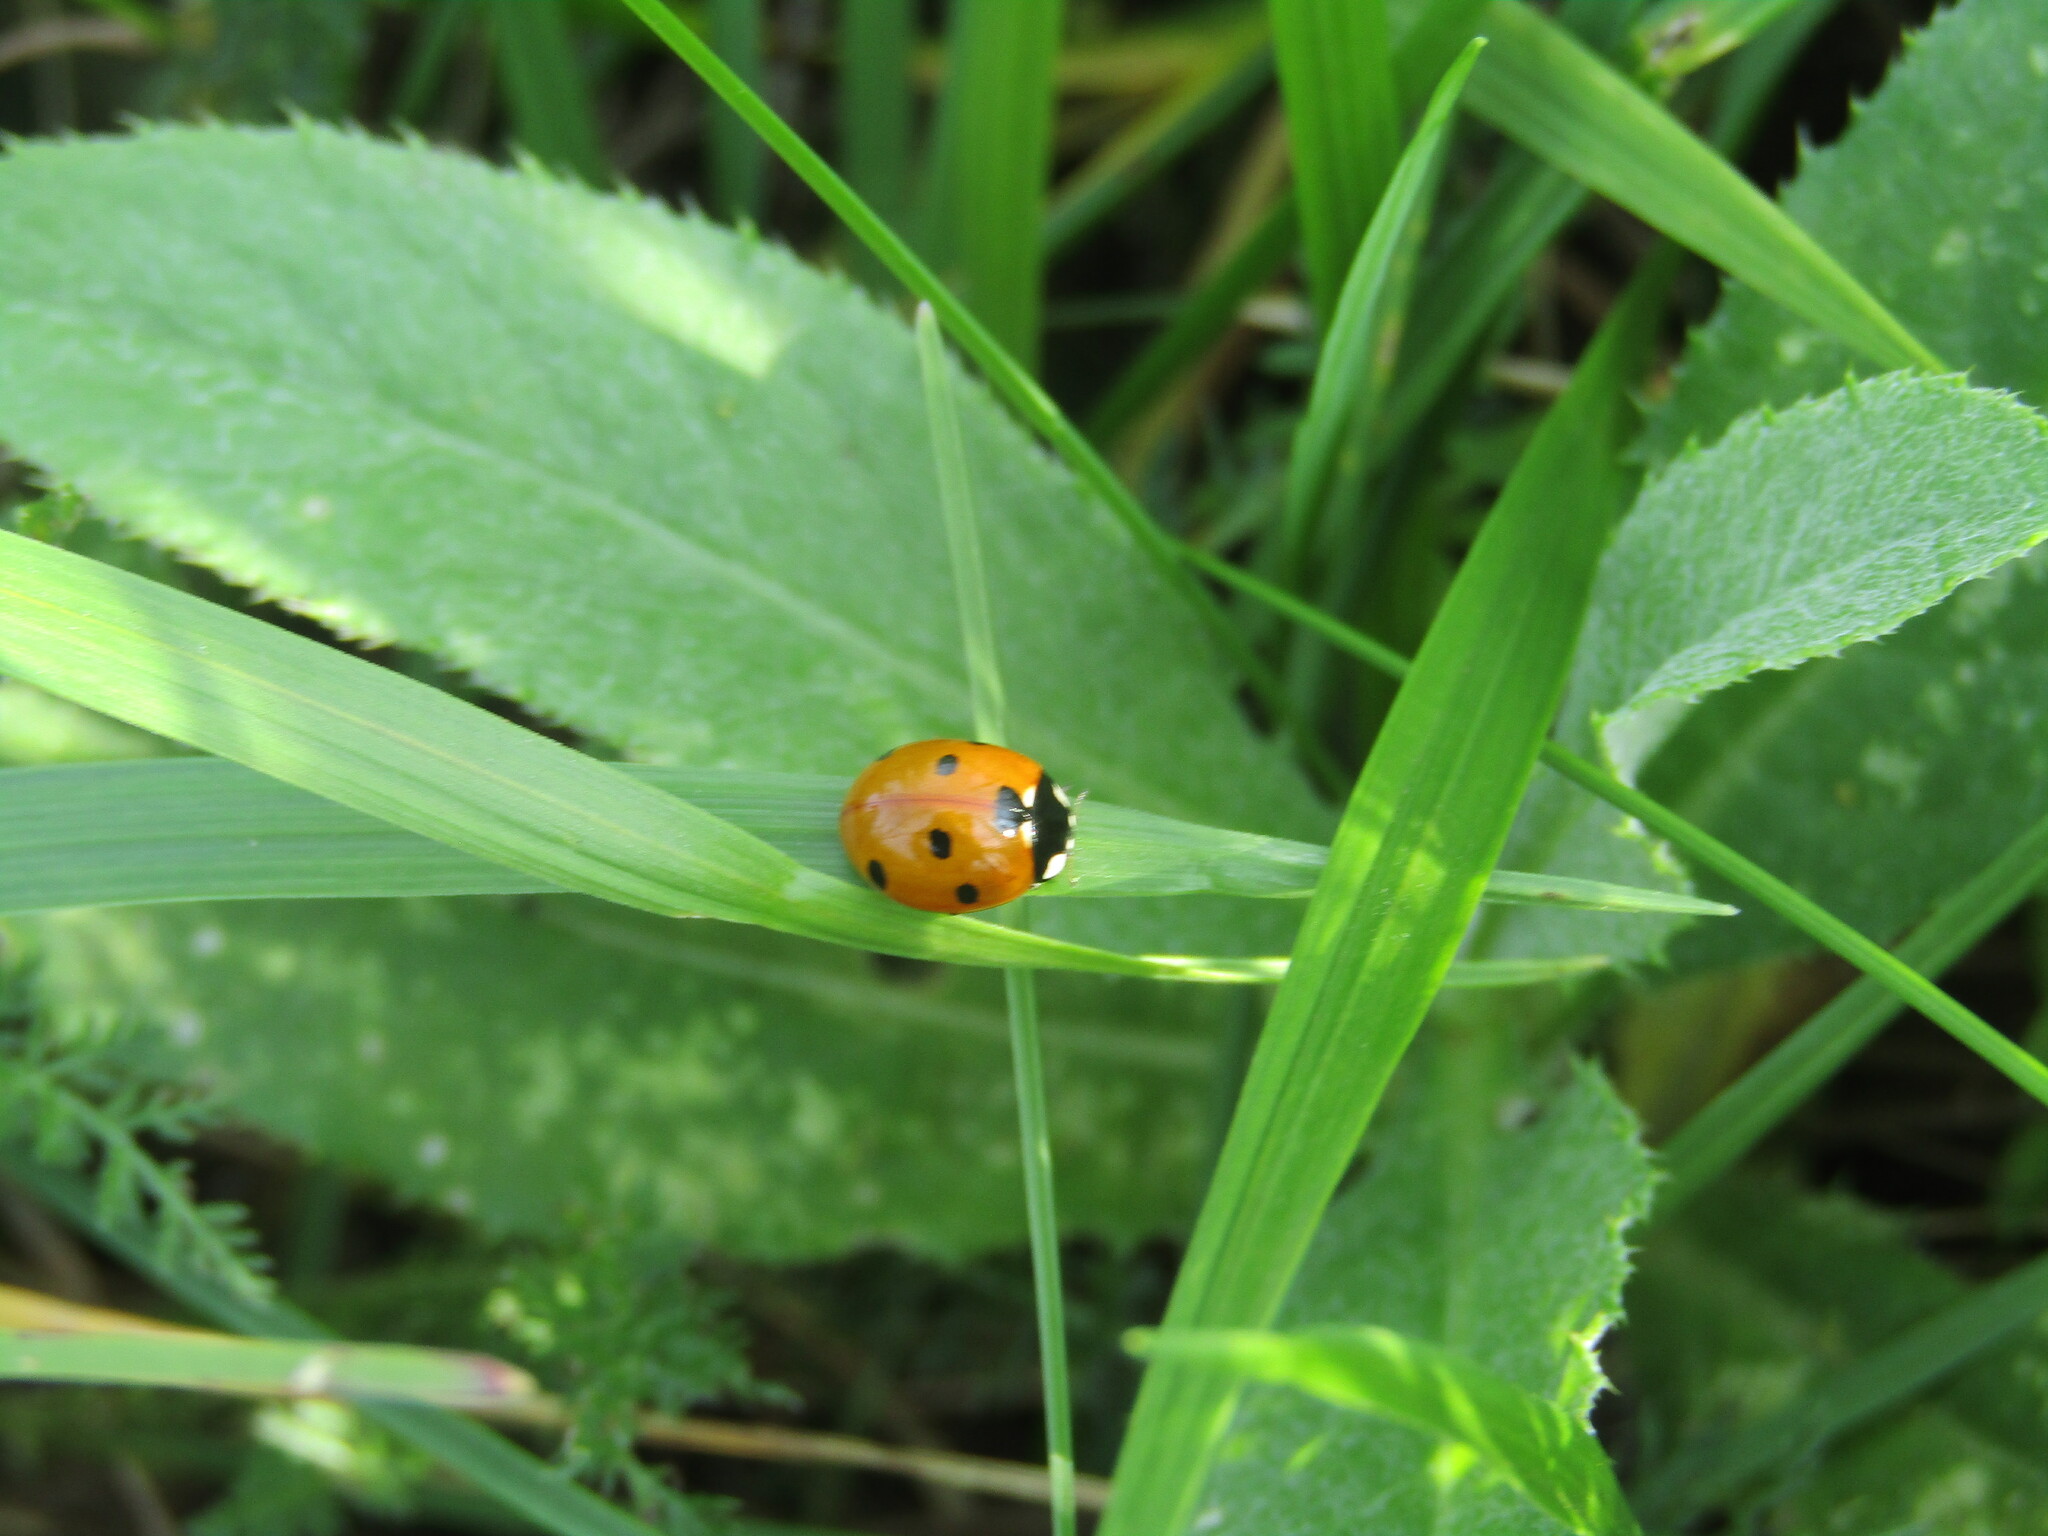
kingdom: Animalia
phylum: Arthropoda
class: Insecta
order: Coleoptera
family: Coccinellidae
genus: Coccinella
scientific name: Coccinella septempunctata
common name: Sevenspotted lady beetle
